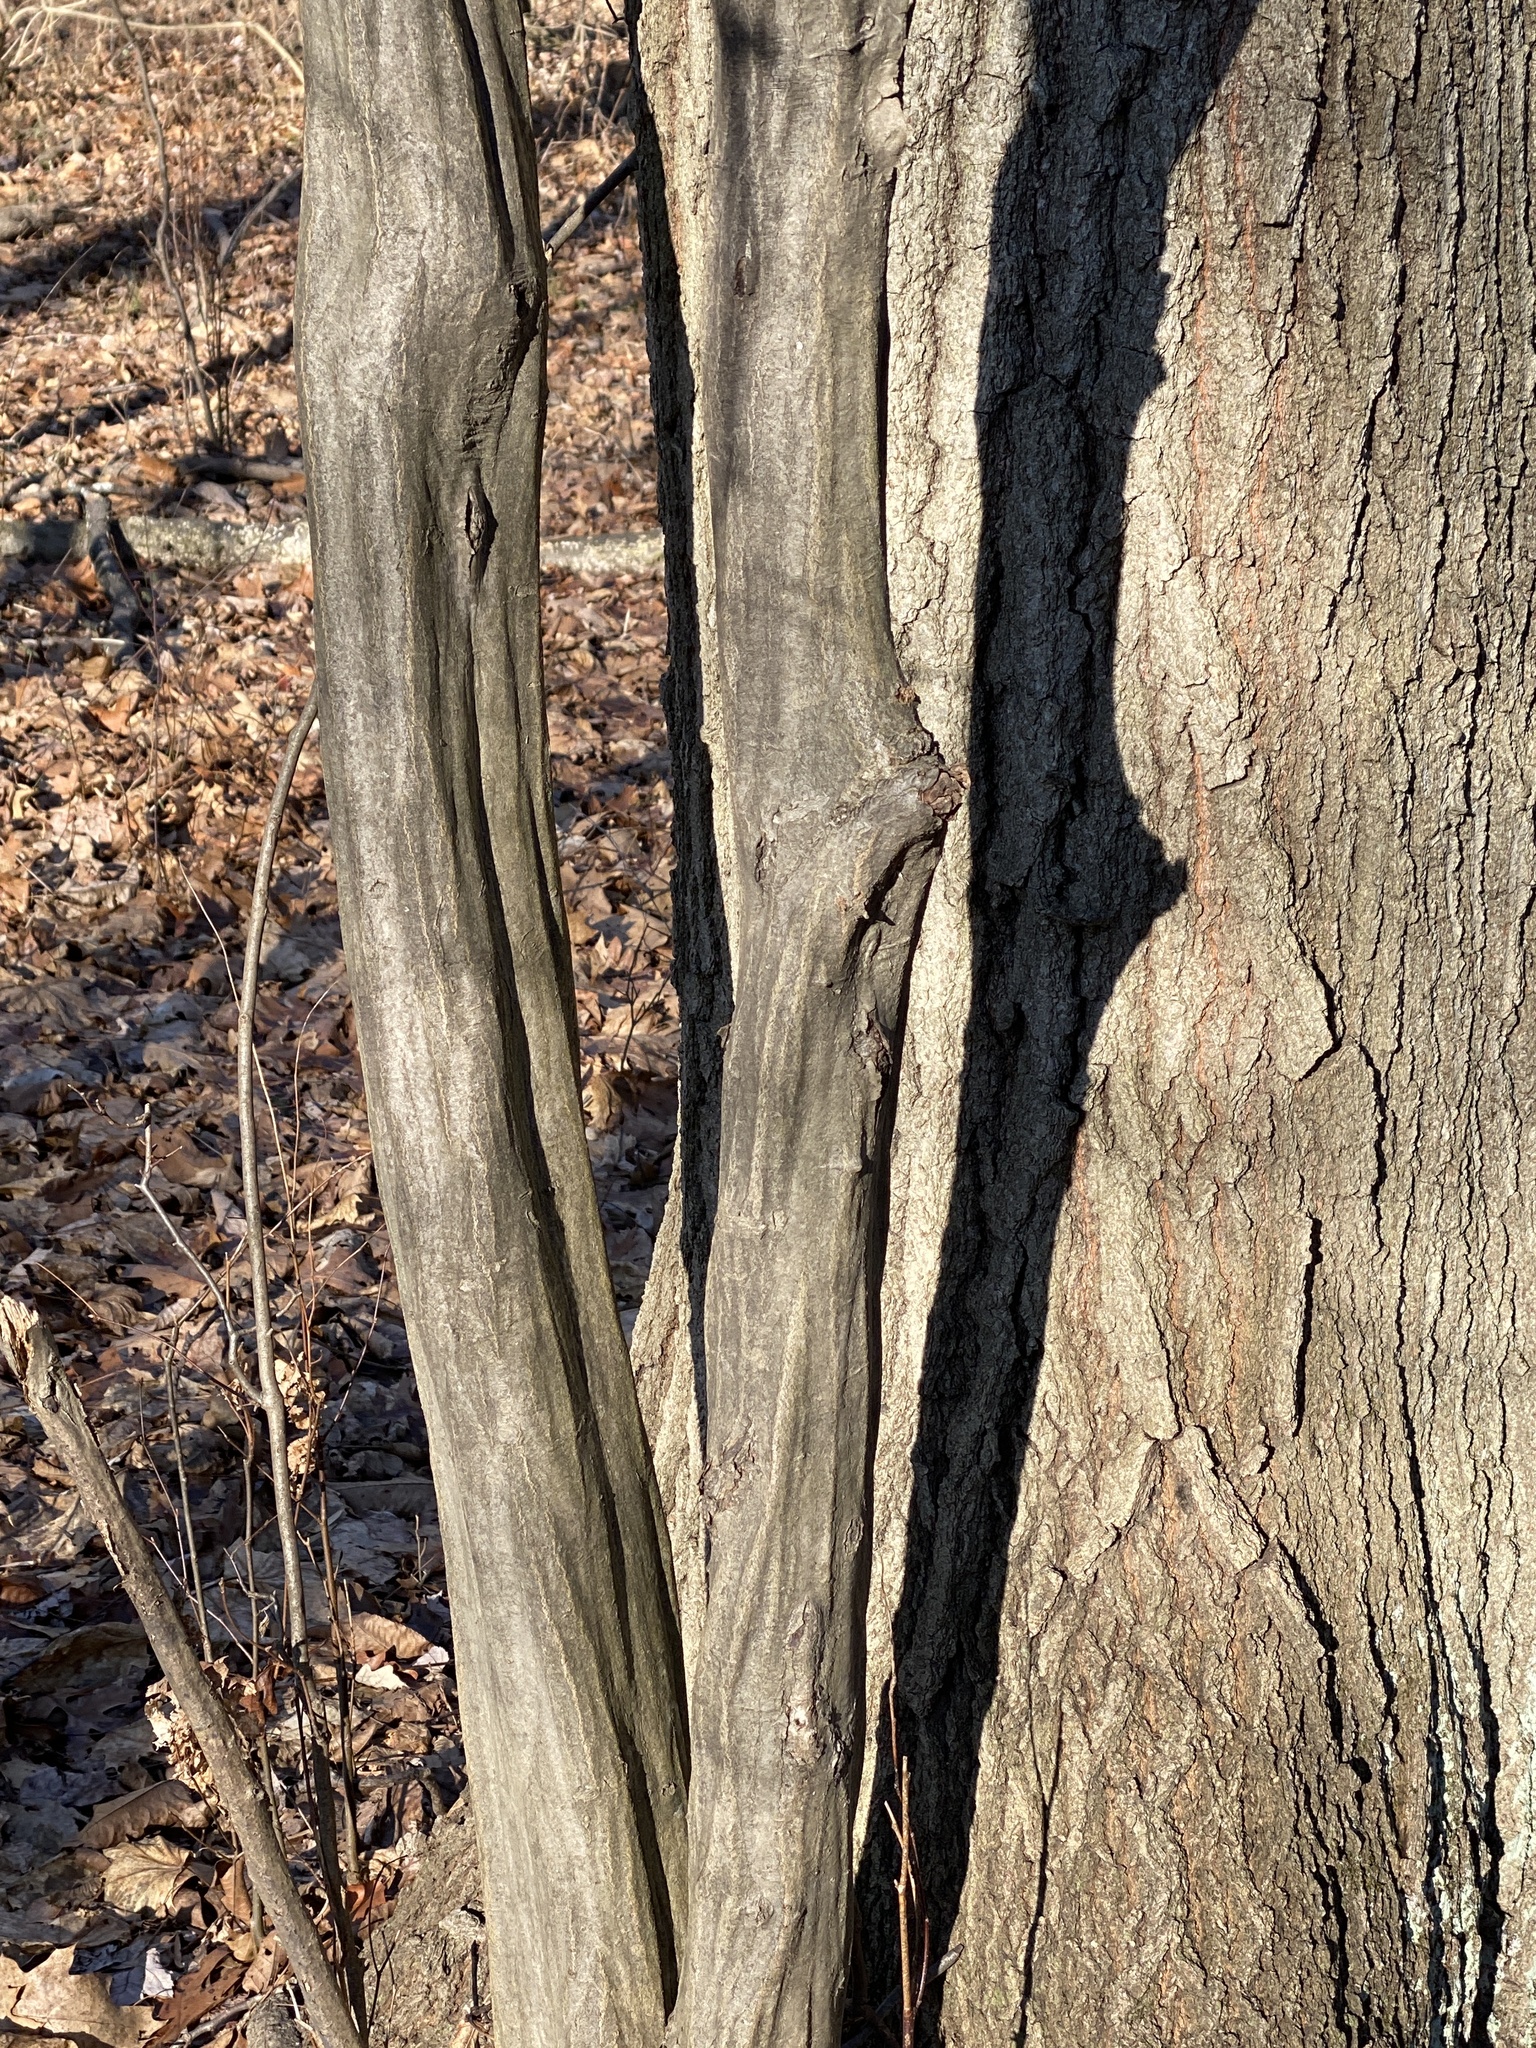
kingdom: Plantae
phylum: Tracheophyta
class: Magnoliopsida
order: Fagales
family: Betulaceae
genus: Carpinus
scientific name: Carpinus caroliniana
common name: American hornbeam
